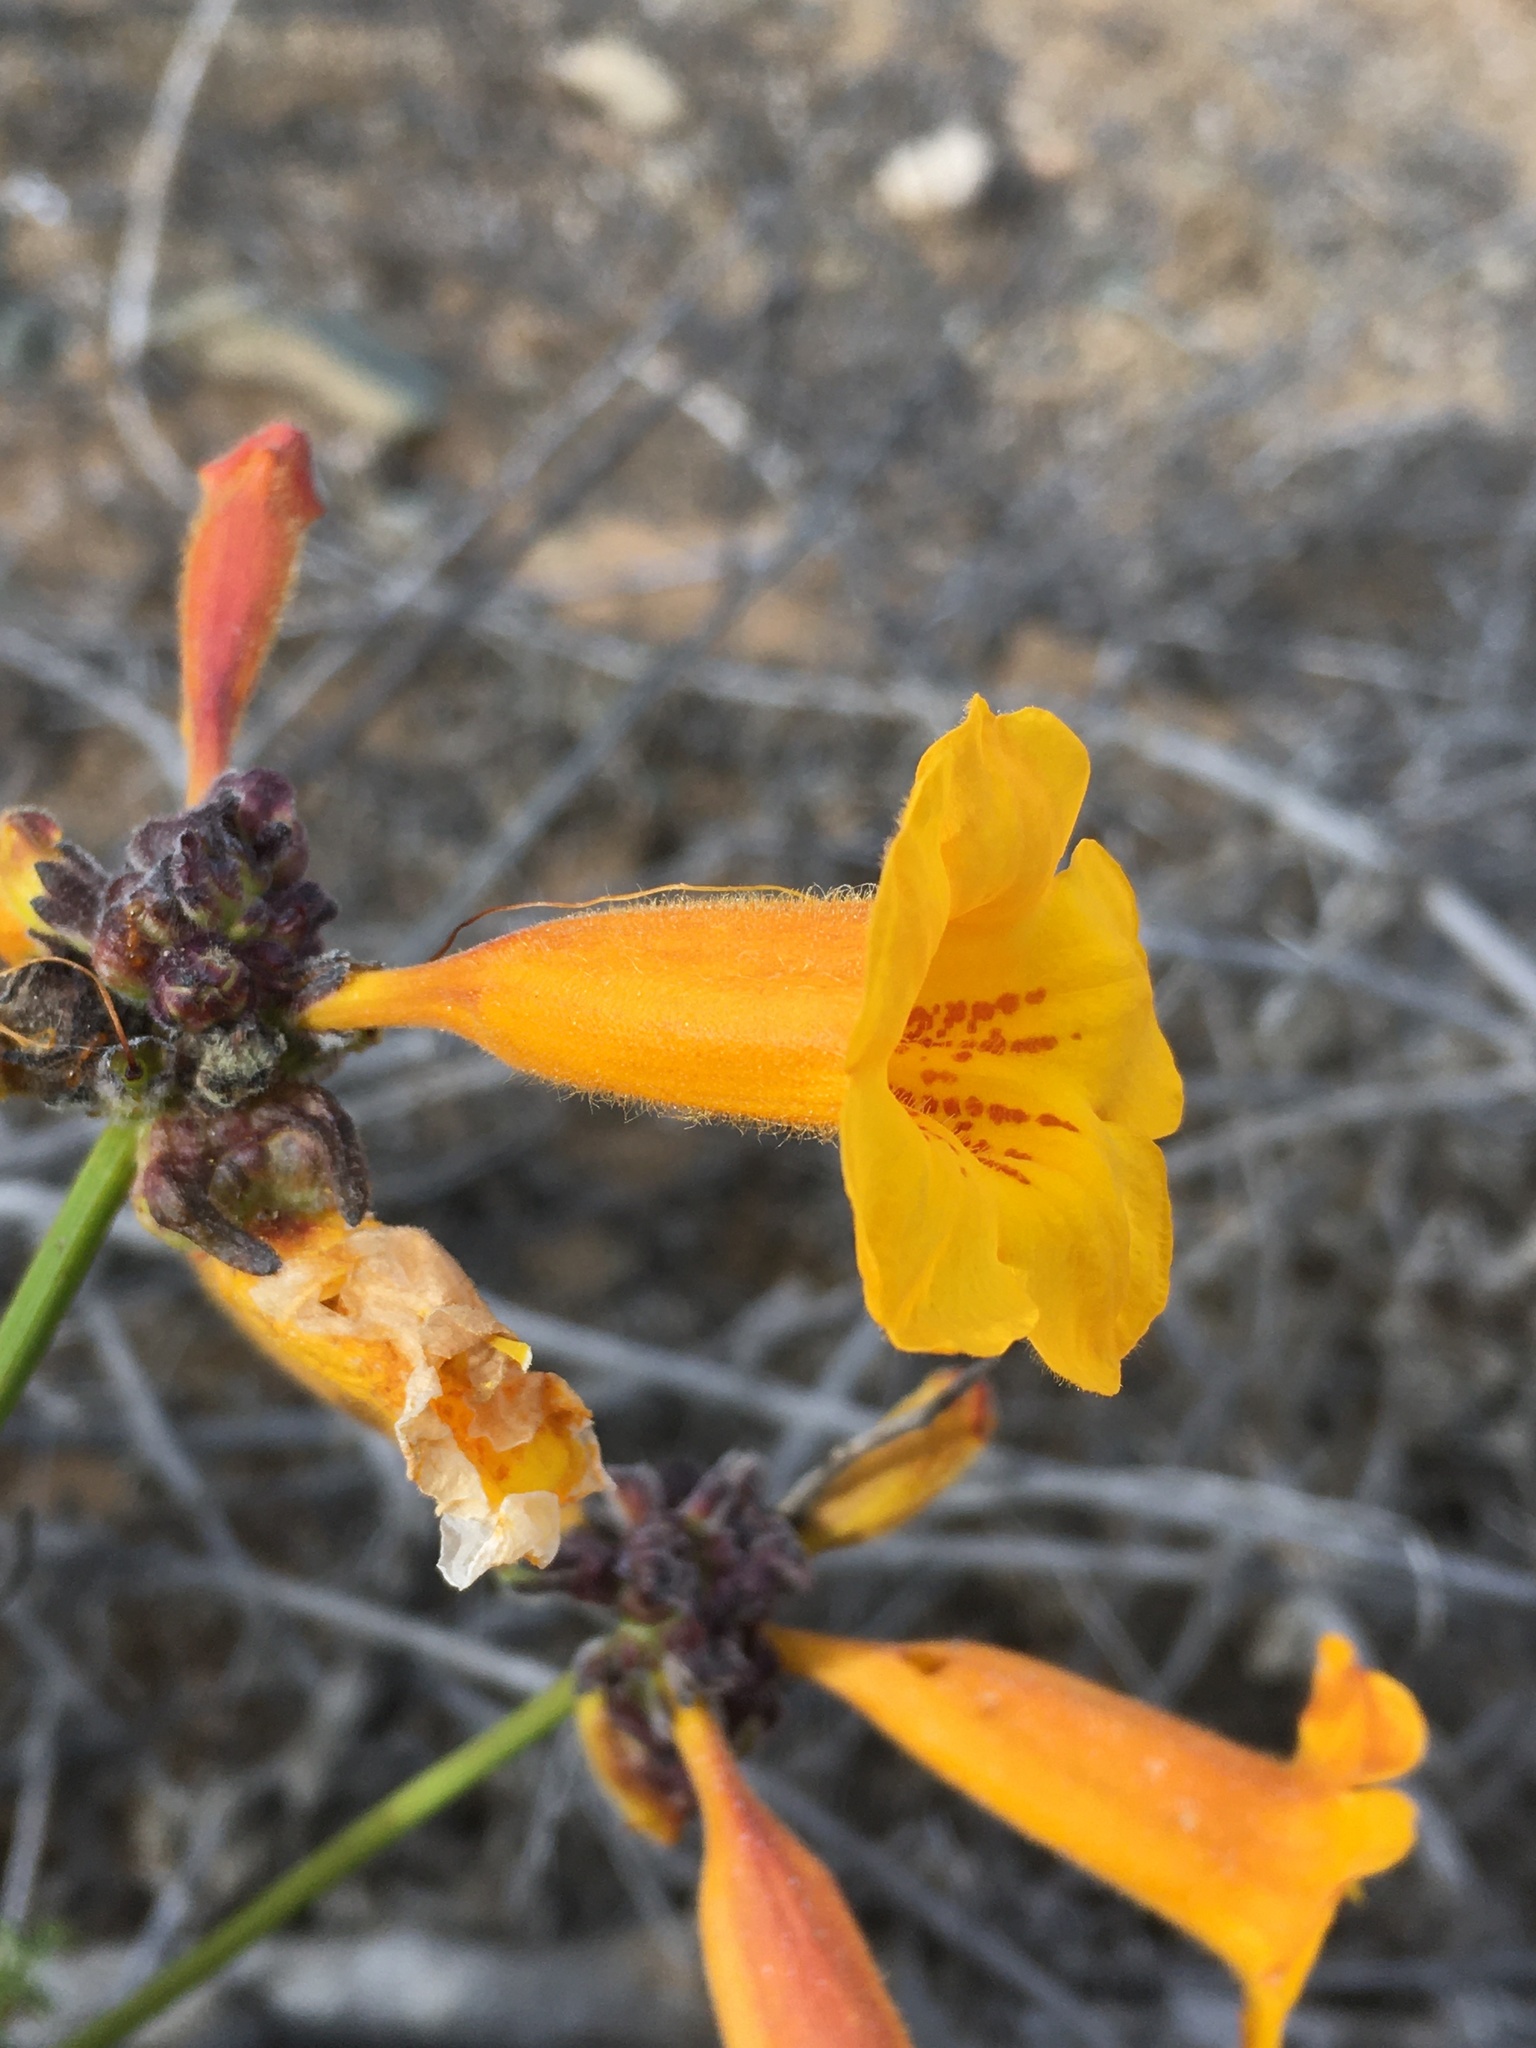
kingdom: Plantae
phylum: Tracheophyta
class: Magnoliopsida
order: Lamiales
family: Bignoniaceae
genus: Argylia
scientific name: Argylia radiata
